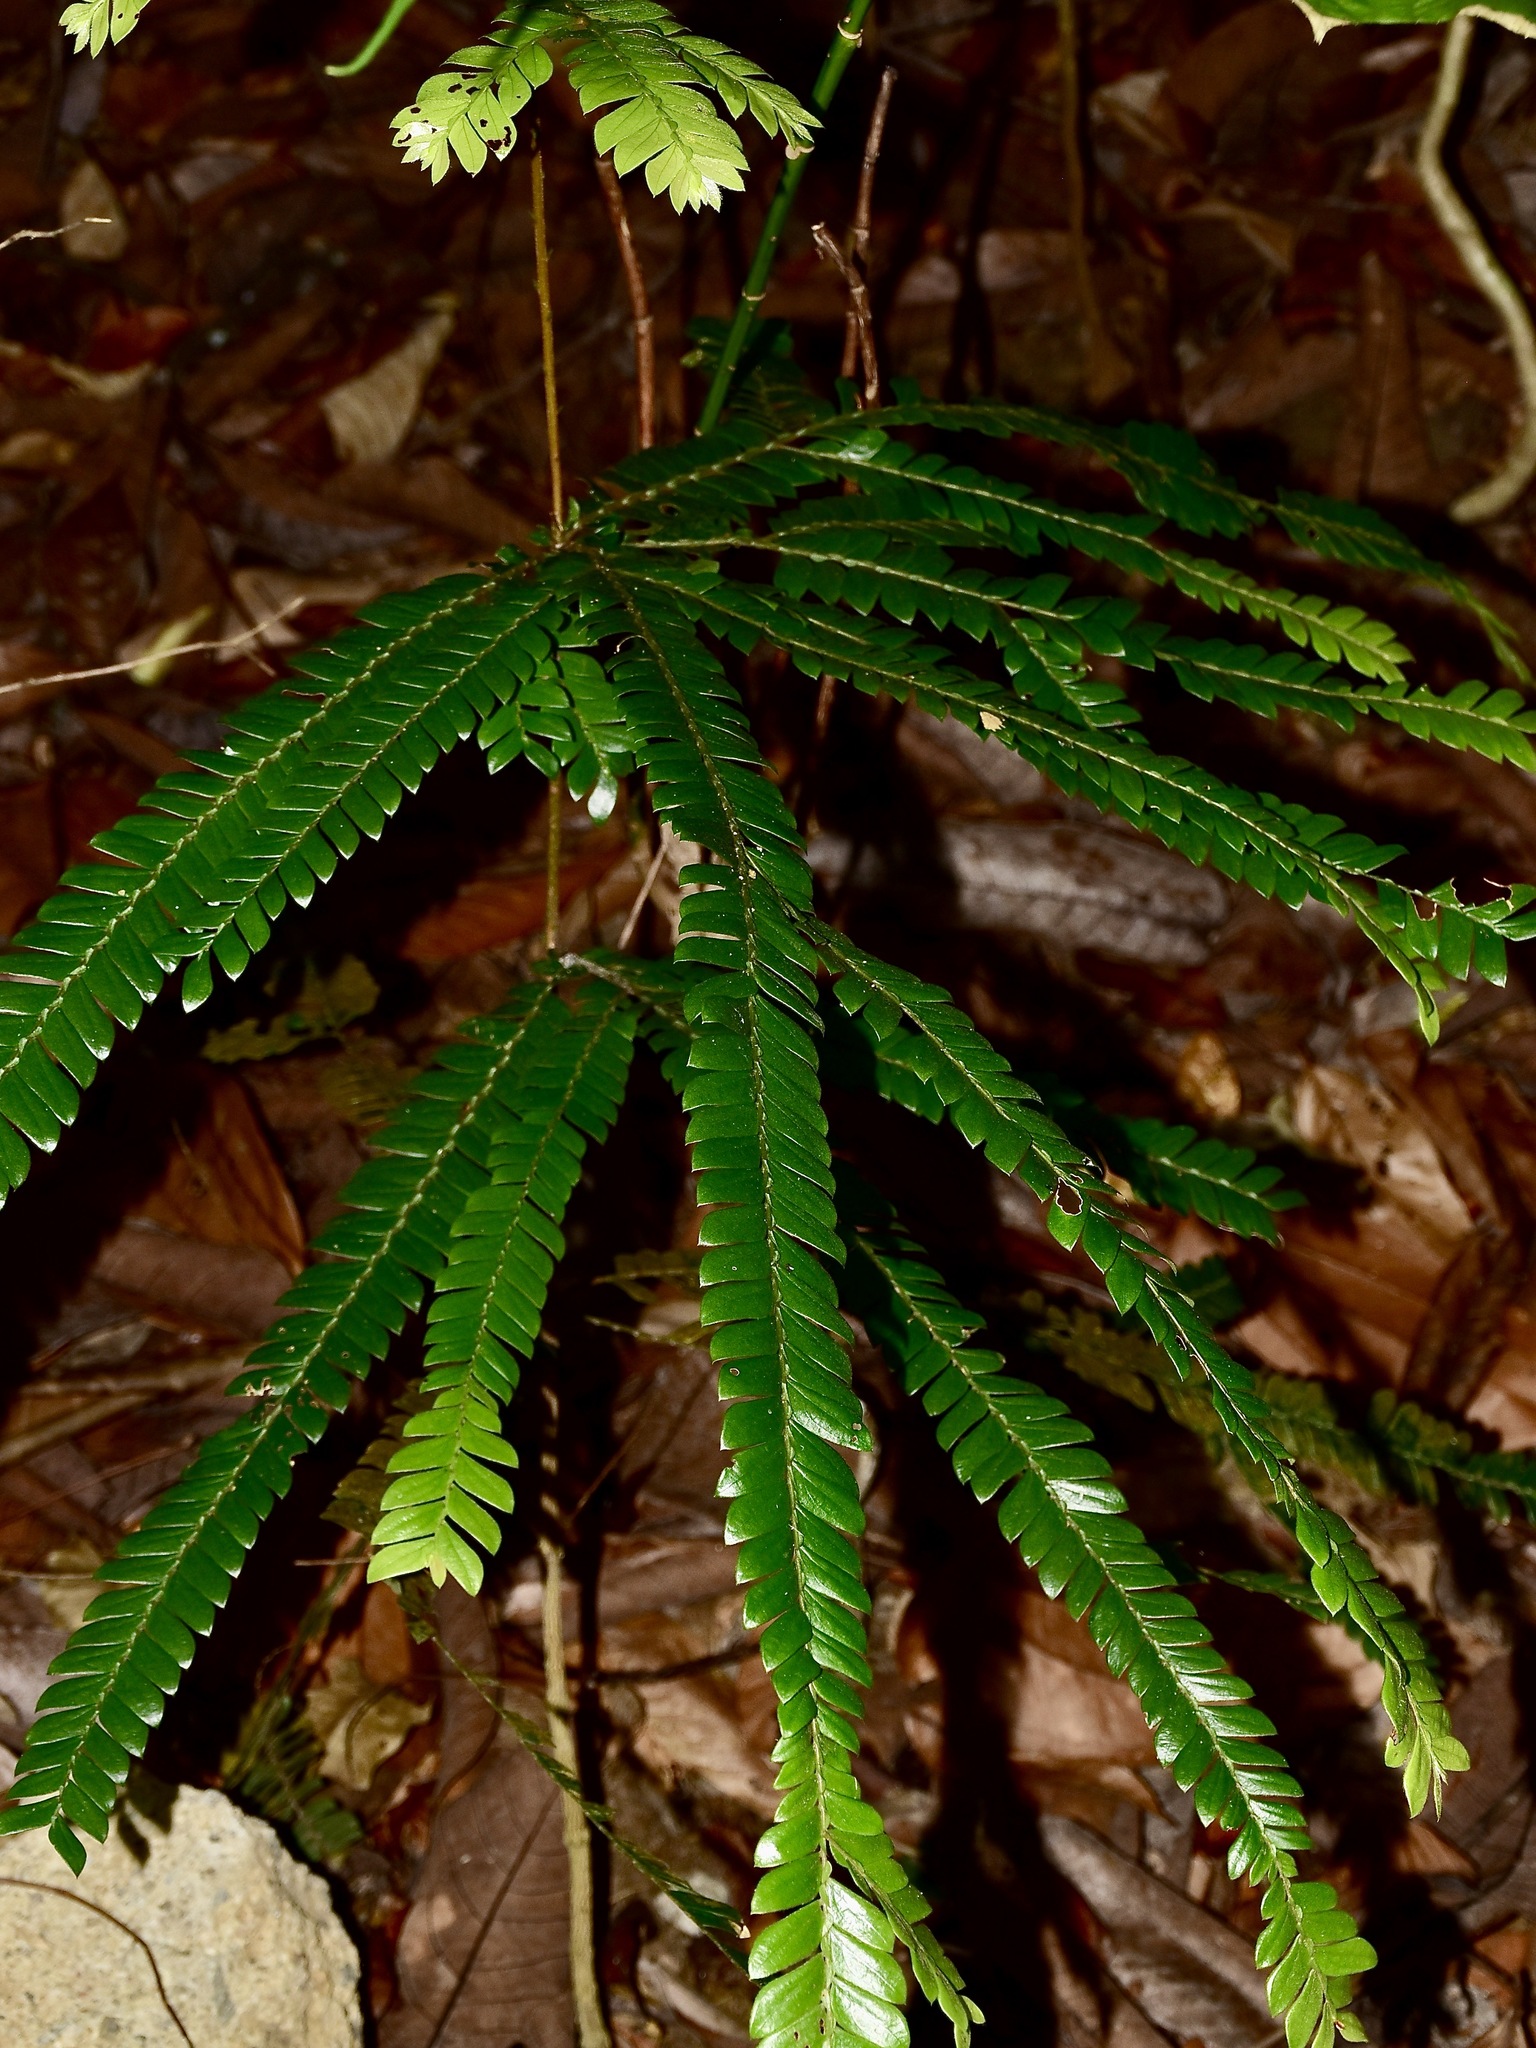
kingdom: Plantae
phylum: Tracheophyta
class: Magnoliopsida
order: Cucurbitales
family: Anisophylleaceae
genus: Anisophyllea
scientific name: Anisophyllea disticha
